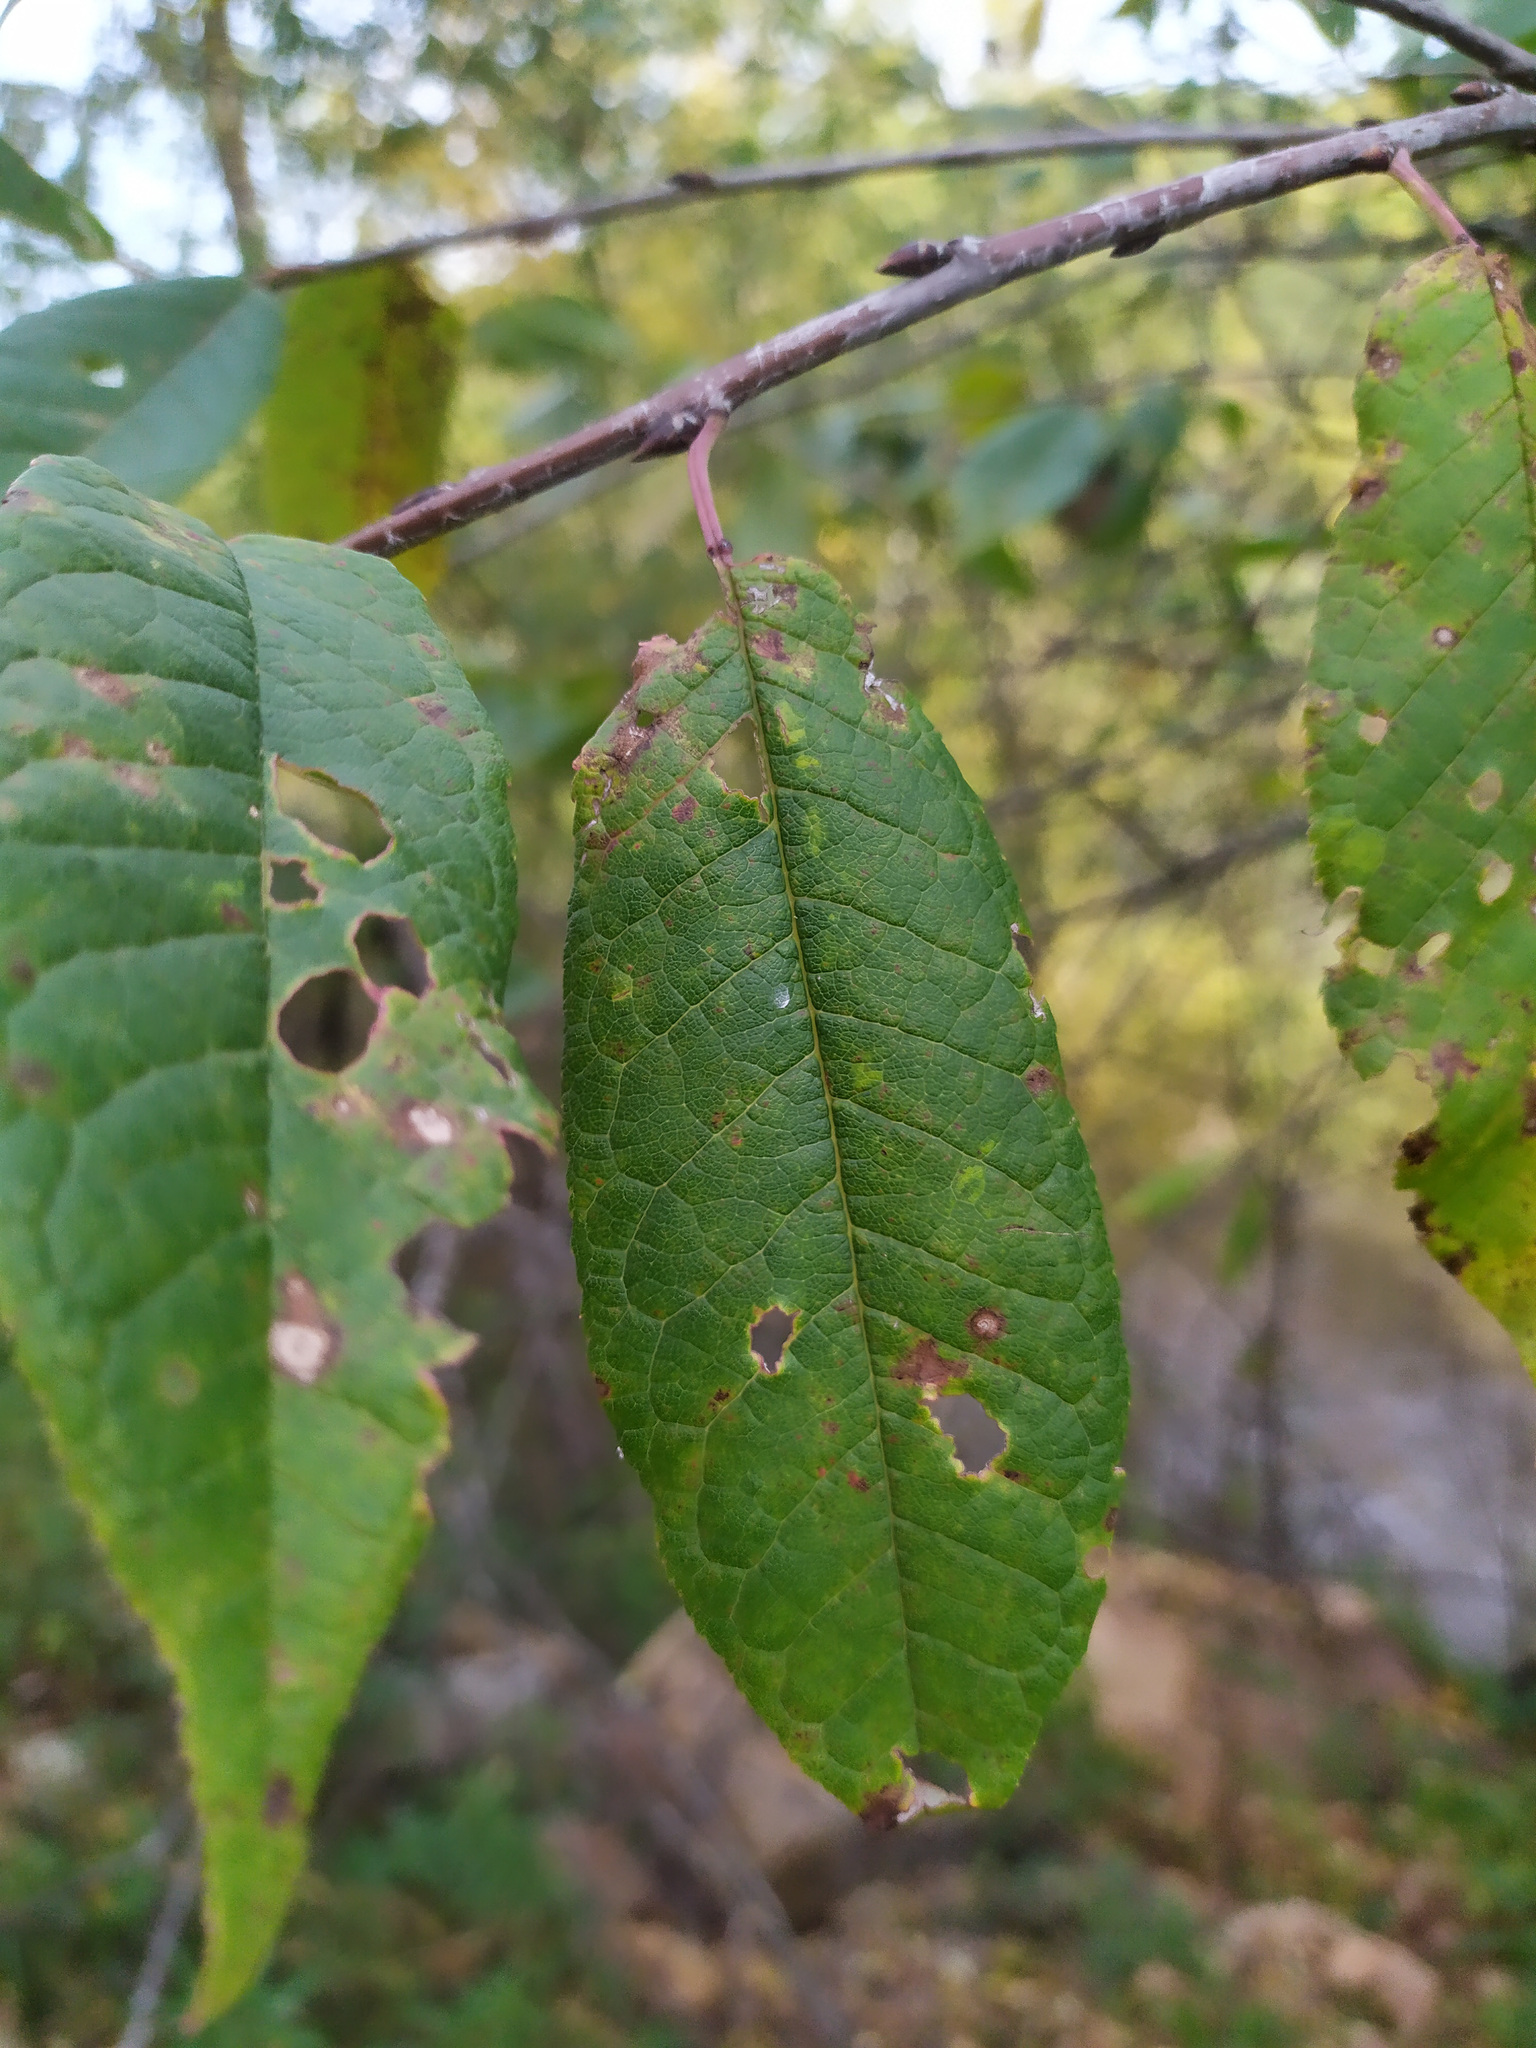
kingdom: Plantae
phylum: Tracheophyta
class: Magnoliopsida
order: Rosales
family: Rosaceae
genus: Prunus
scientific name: Prunus padus
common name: Bird cherry
